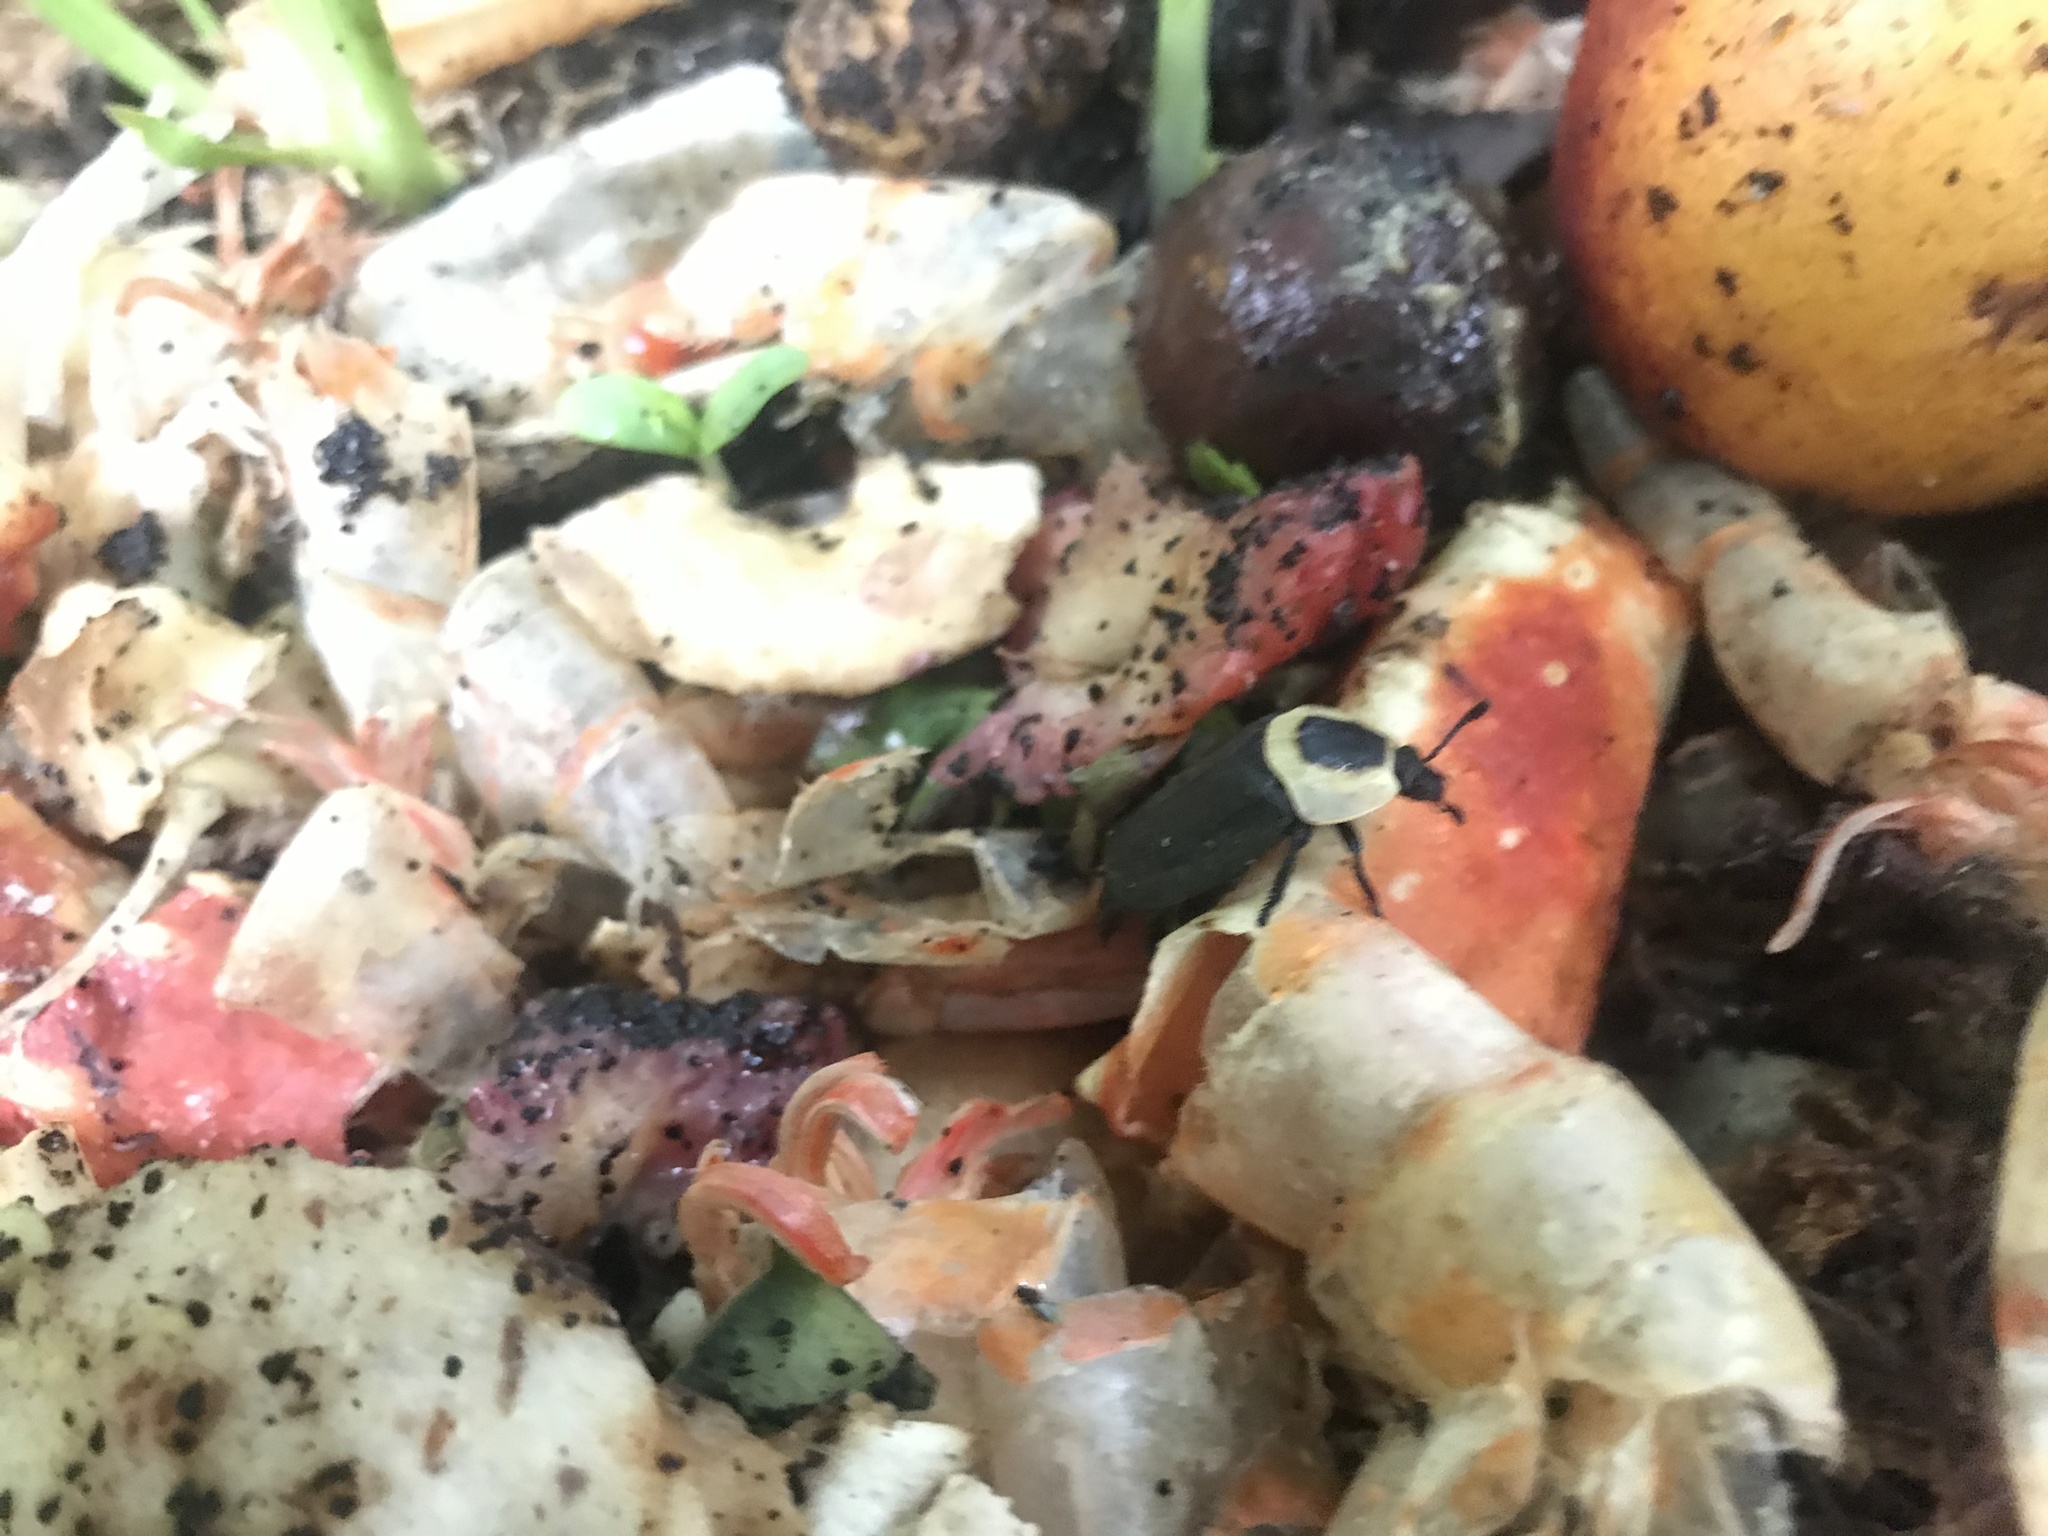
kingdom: Animalia
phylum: Arthropoda
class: Insecta
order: Coleoptera
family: Staphylinidae
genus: Necrophila
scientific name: Necrophila americana
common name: American carrion beetle
